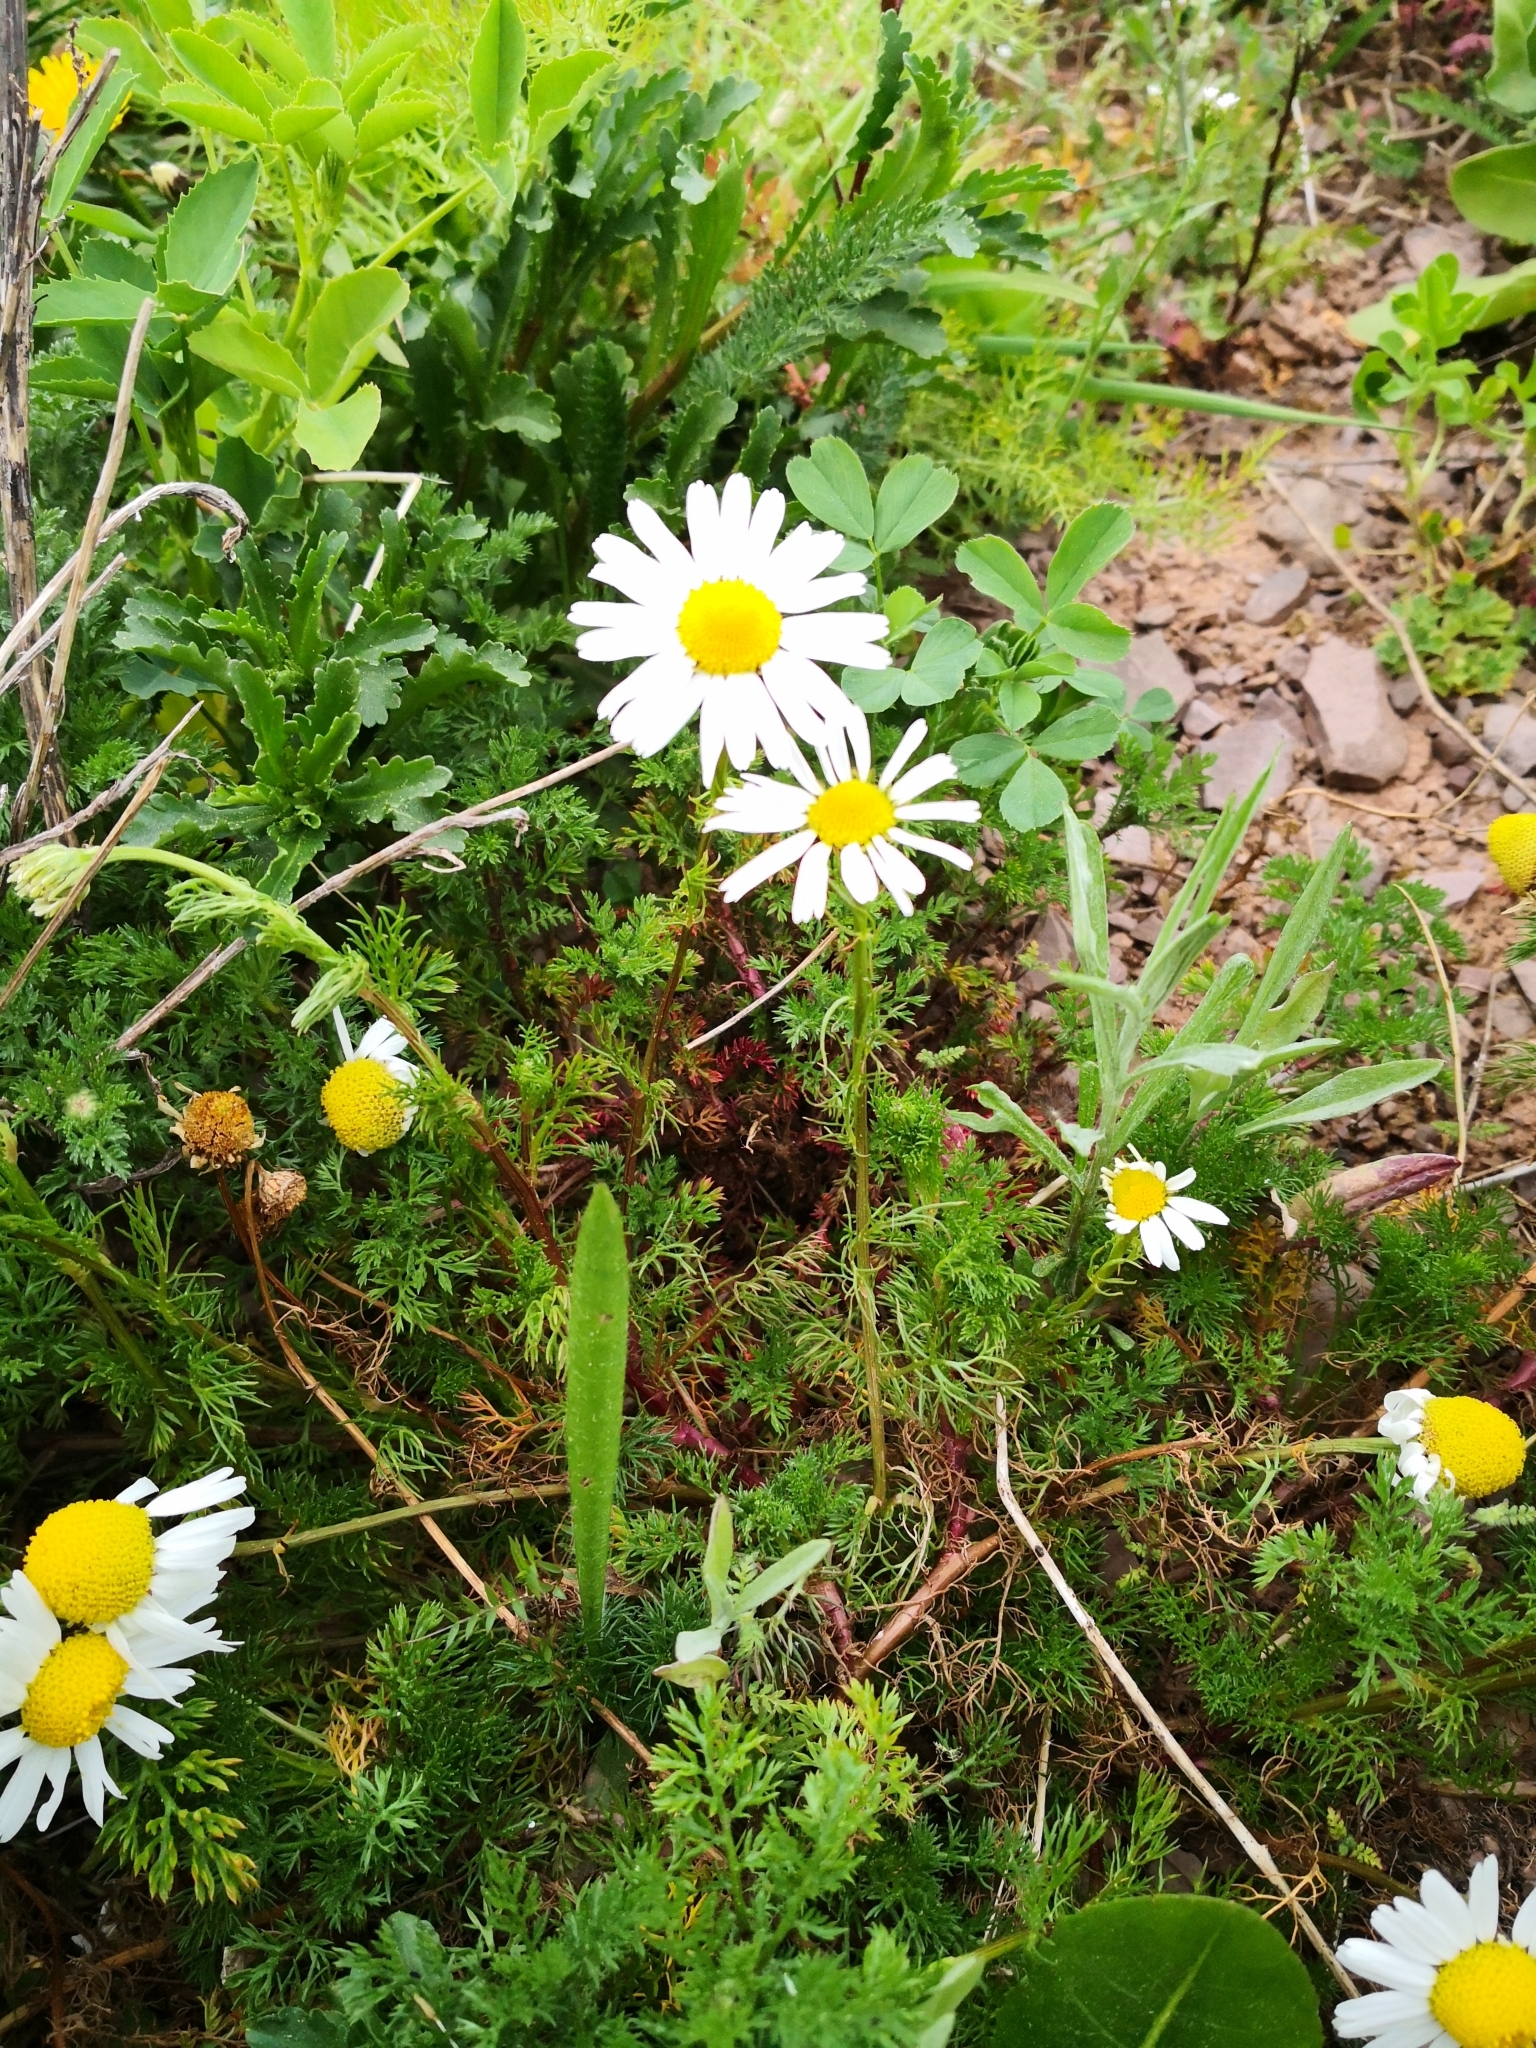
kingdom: Plantae
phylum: Tracheophyta
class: Magnoliopsida
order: Asterales
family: Asteraceae
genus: Tripleurospermum
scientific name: Tripleurospermum inodorum
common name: Scentless mayweed
